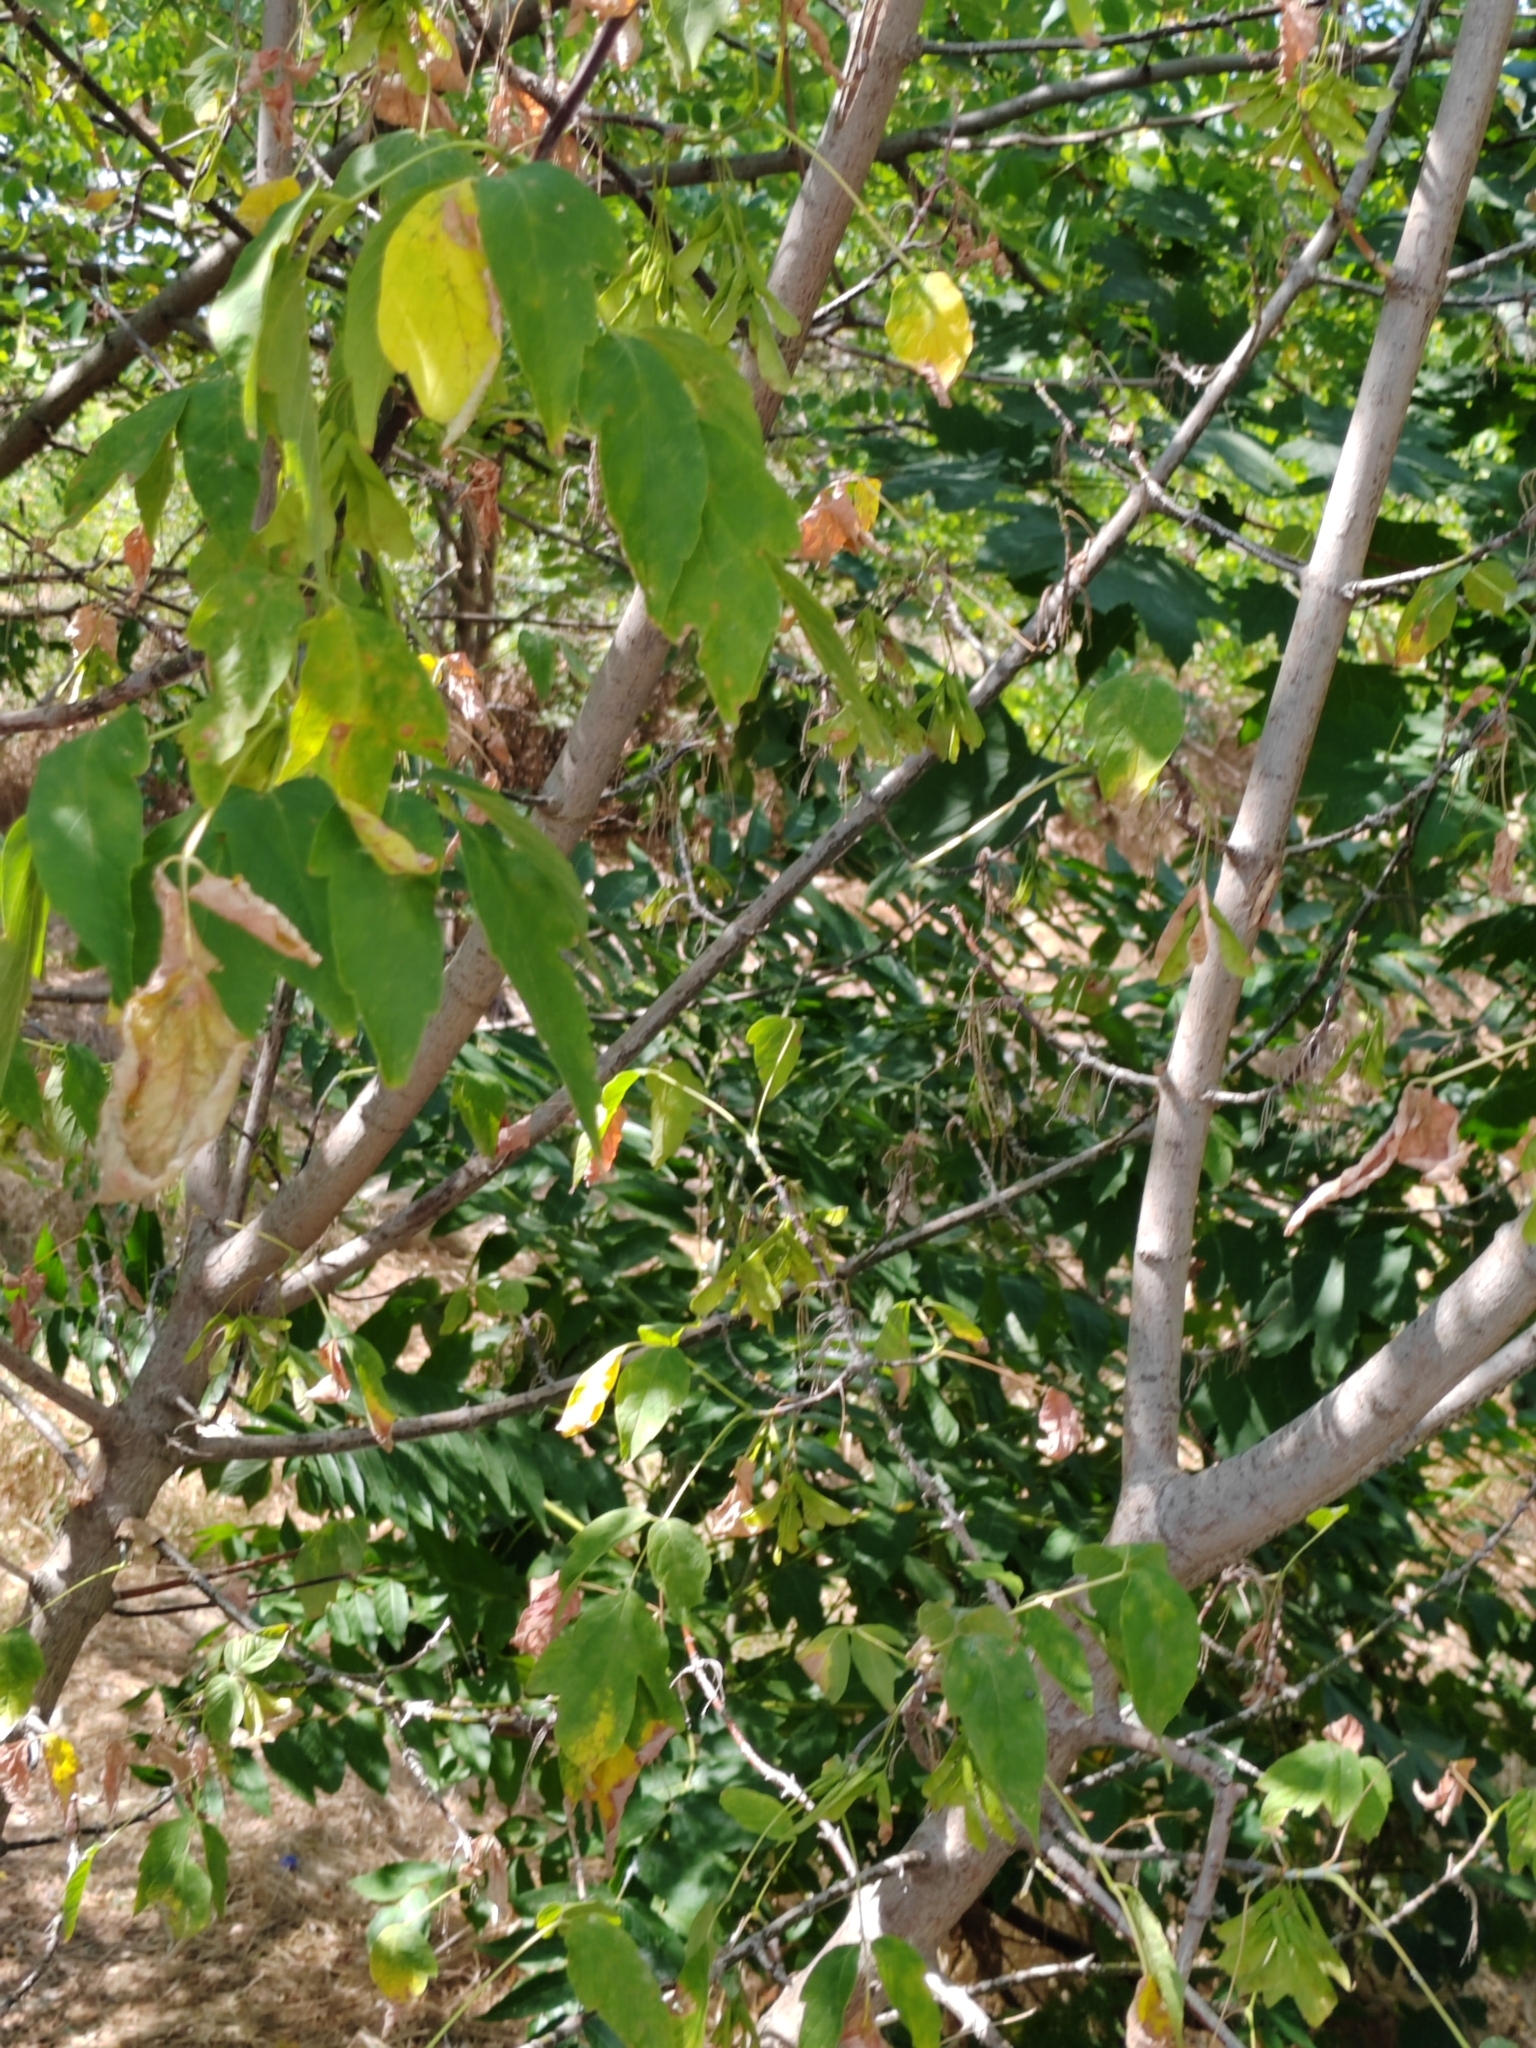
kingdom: Plantae
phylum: Tracheophyta
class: Magnoliopsida
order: Sapindales
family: Sapindaceae
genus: Acer
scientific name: Acer negundo
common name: Ashleaf maple
